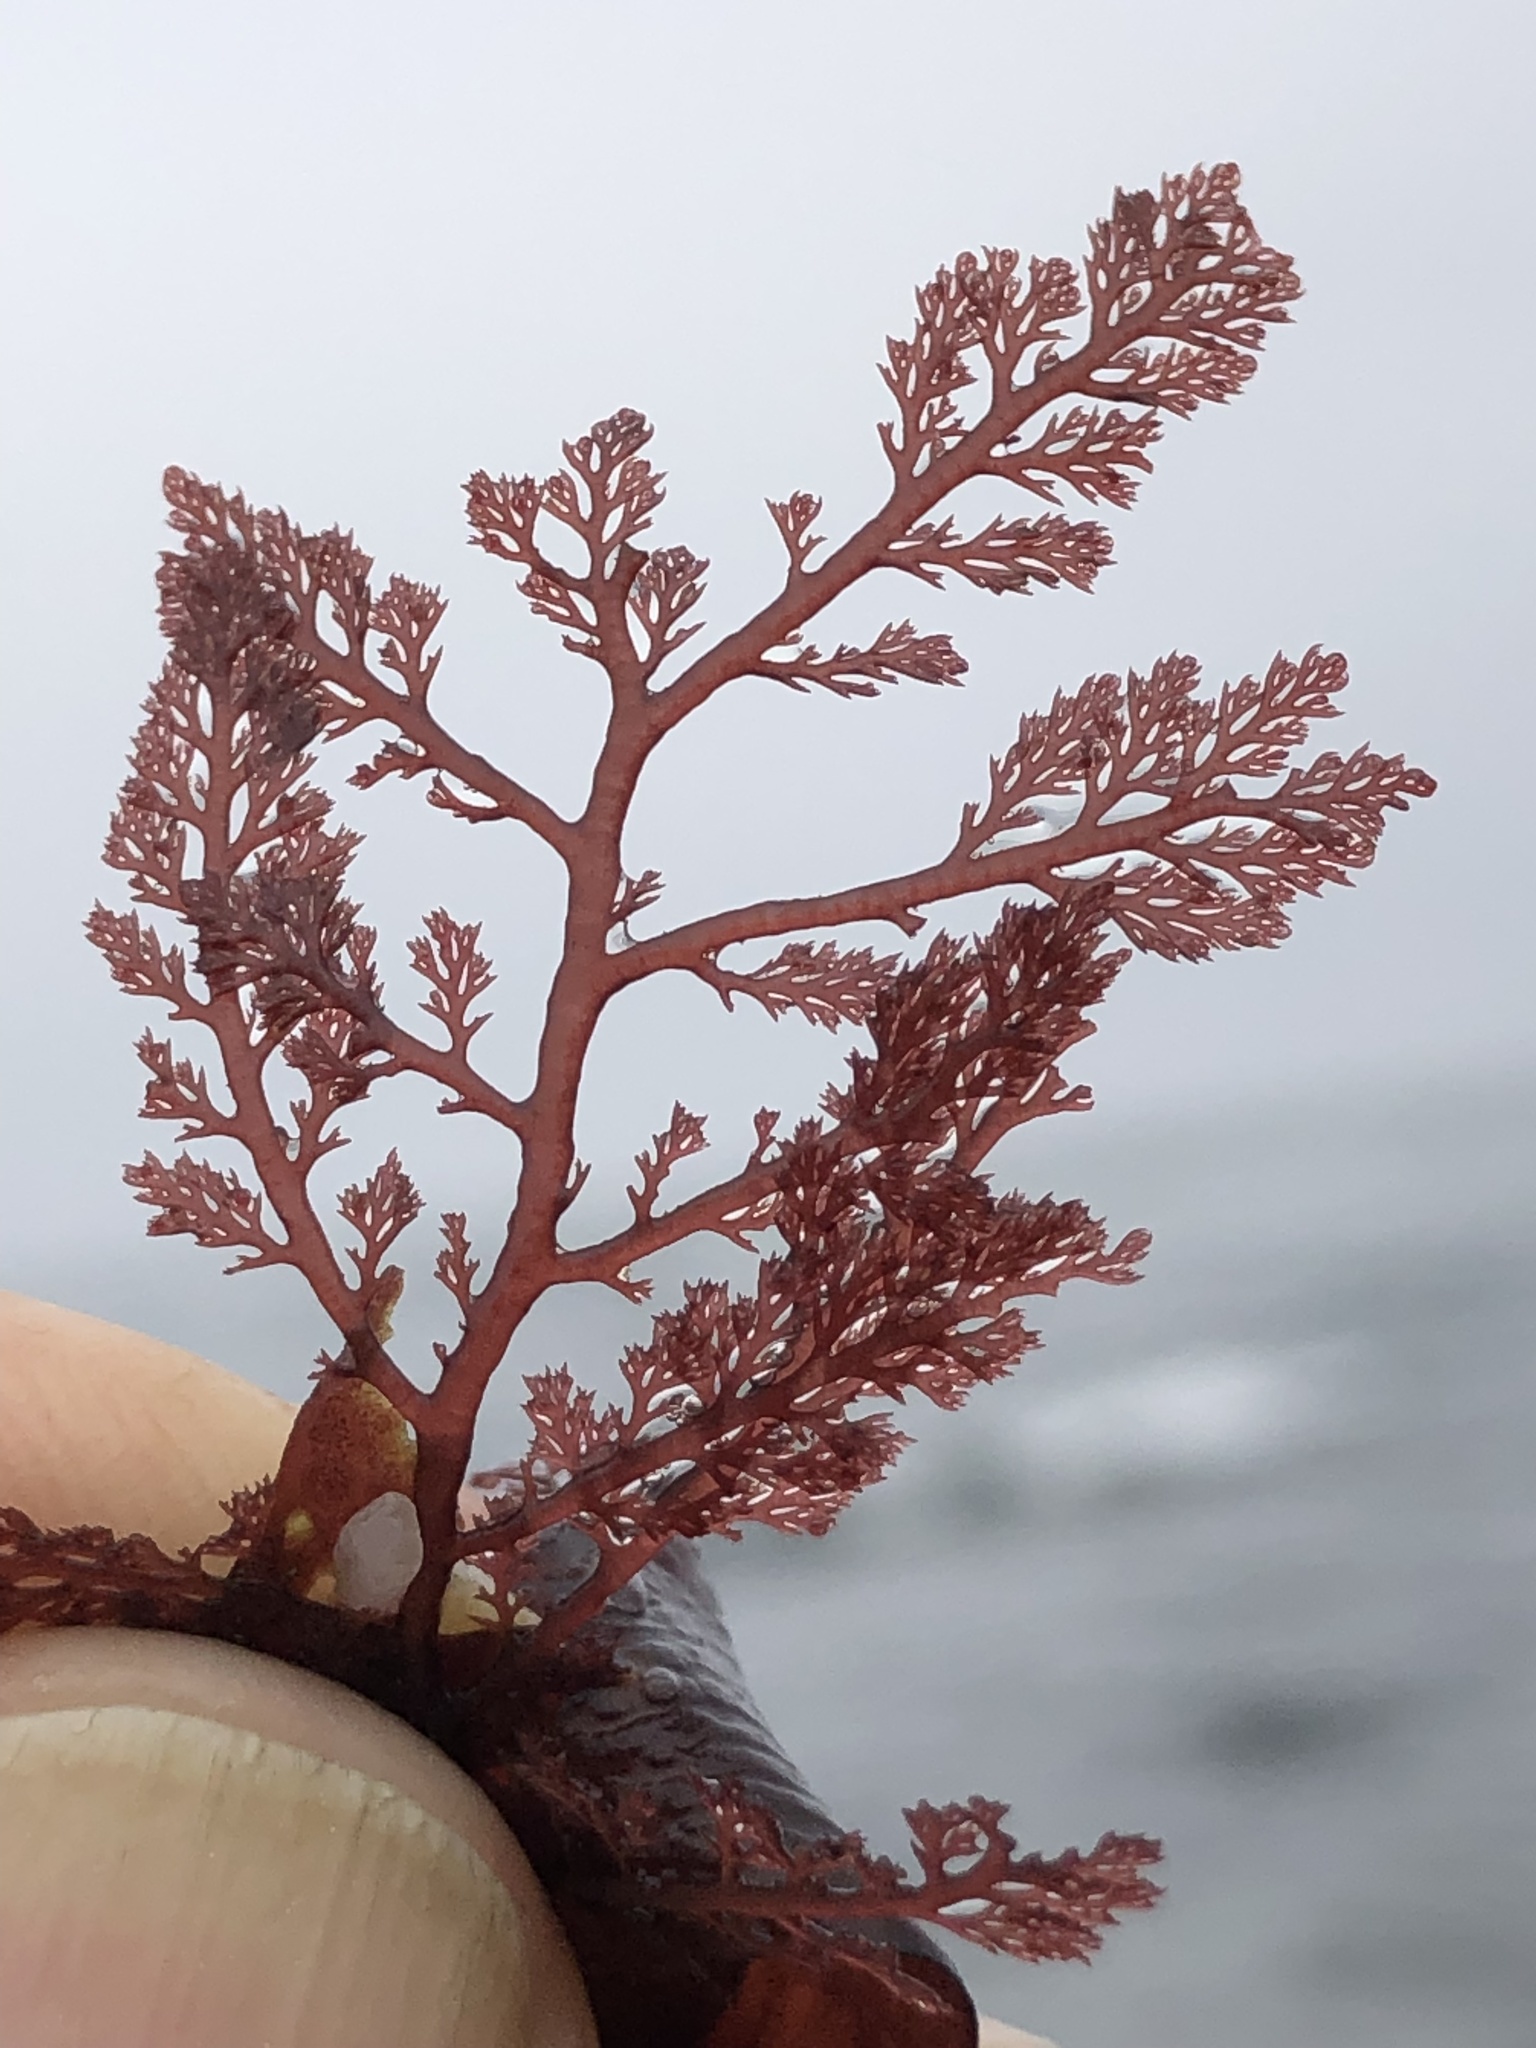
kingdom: Plantae
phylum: Rhodophyta
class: Florideophyceae
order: Ceramiales
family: Ceramiaceae
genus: Microcladia
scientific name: Microcladia coulteri
